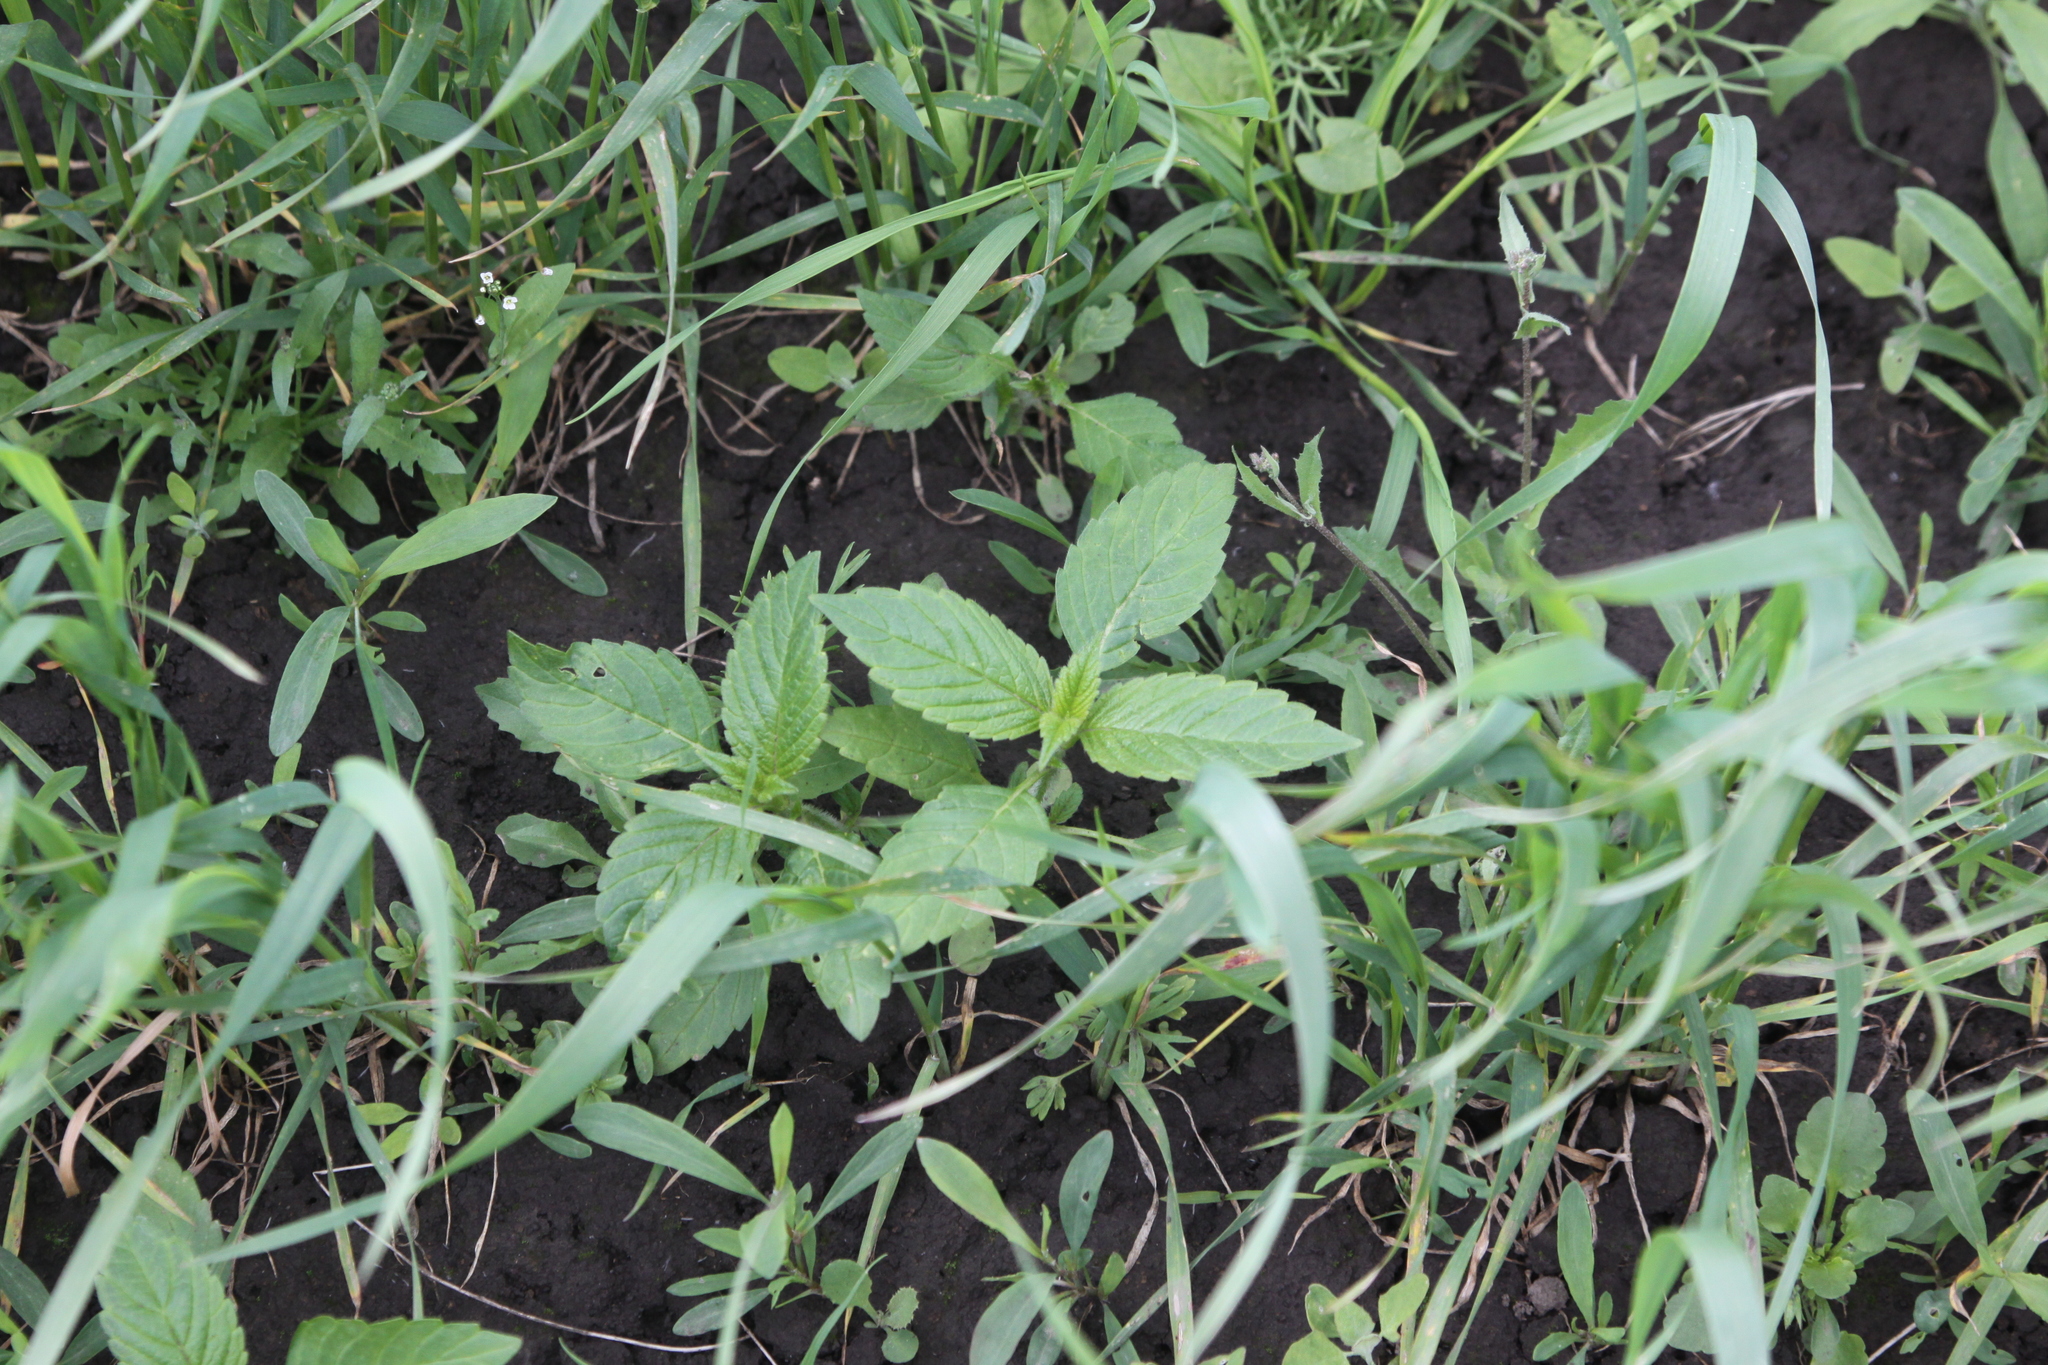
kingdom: Plantae
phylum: Tracheophyta
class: Magnoliopsida
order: Lamiales
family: Lamiaceae
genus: Galeopsis
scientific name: Galeopsis
